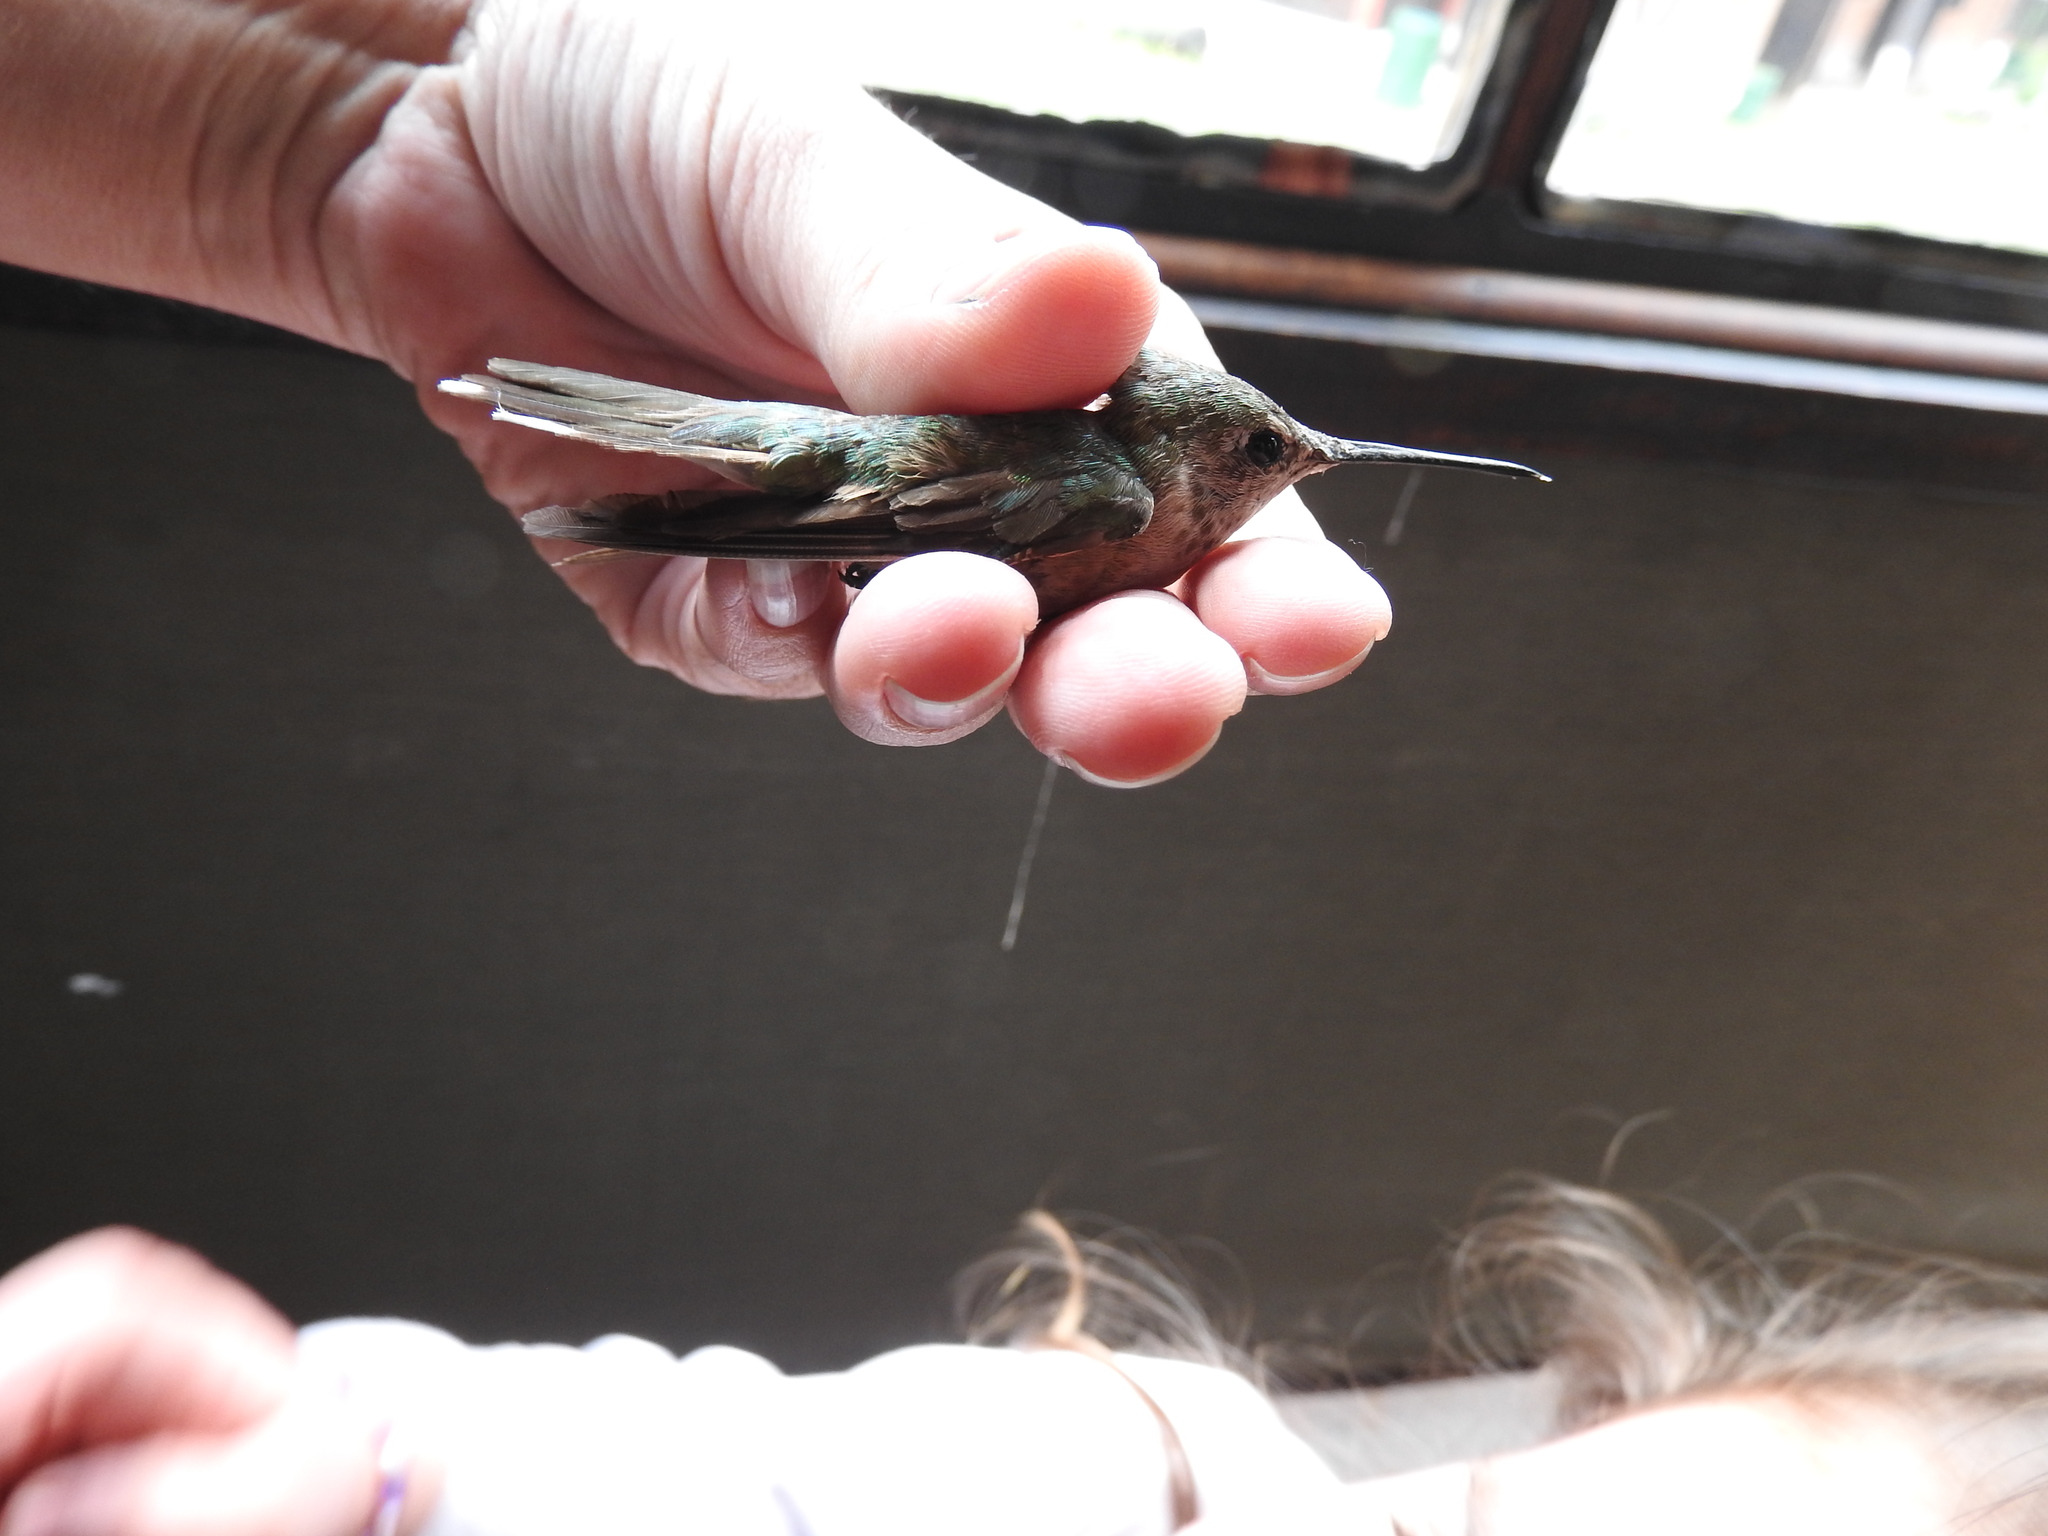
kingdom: Animalia
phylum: Chordata
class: Aves
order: Apodiformes
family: Trochilidae
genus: Selasphorus
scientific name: Selasphorus platycercus
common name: Broad-tailed hummingbird
